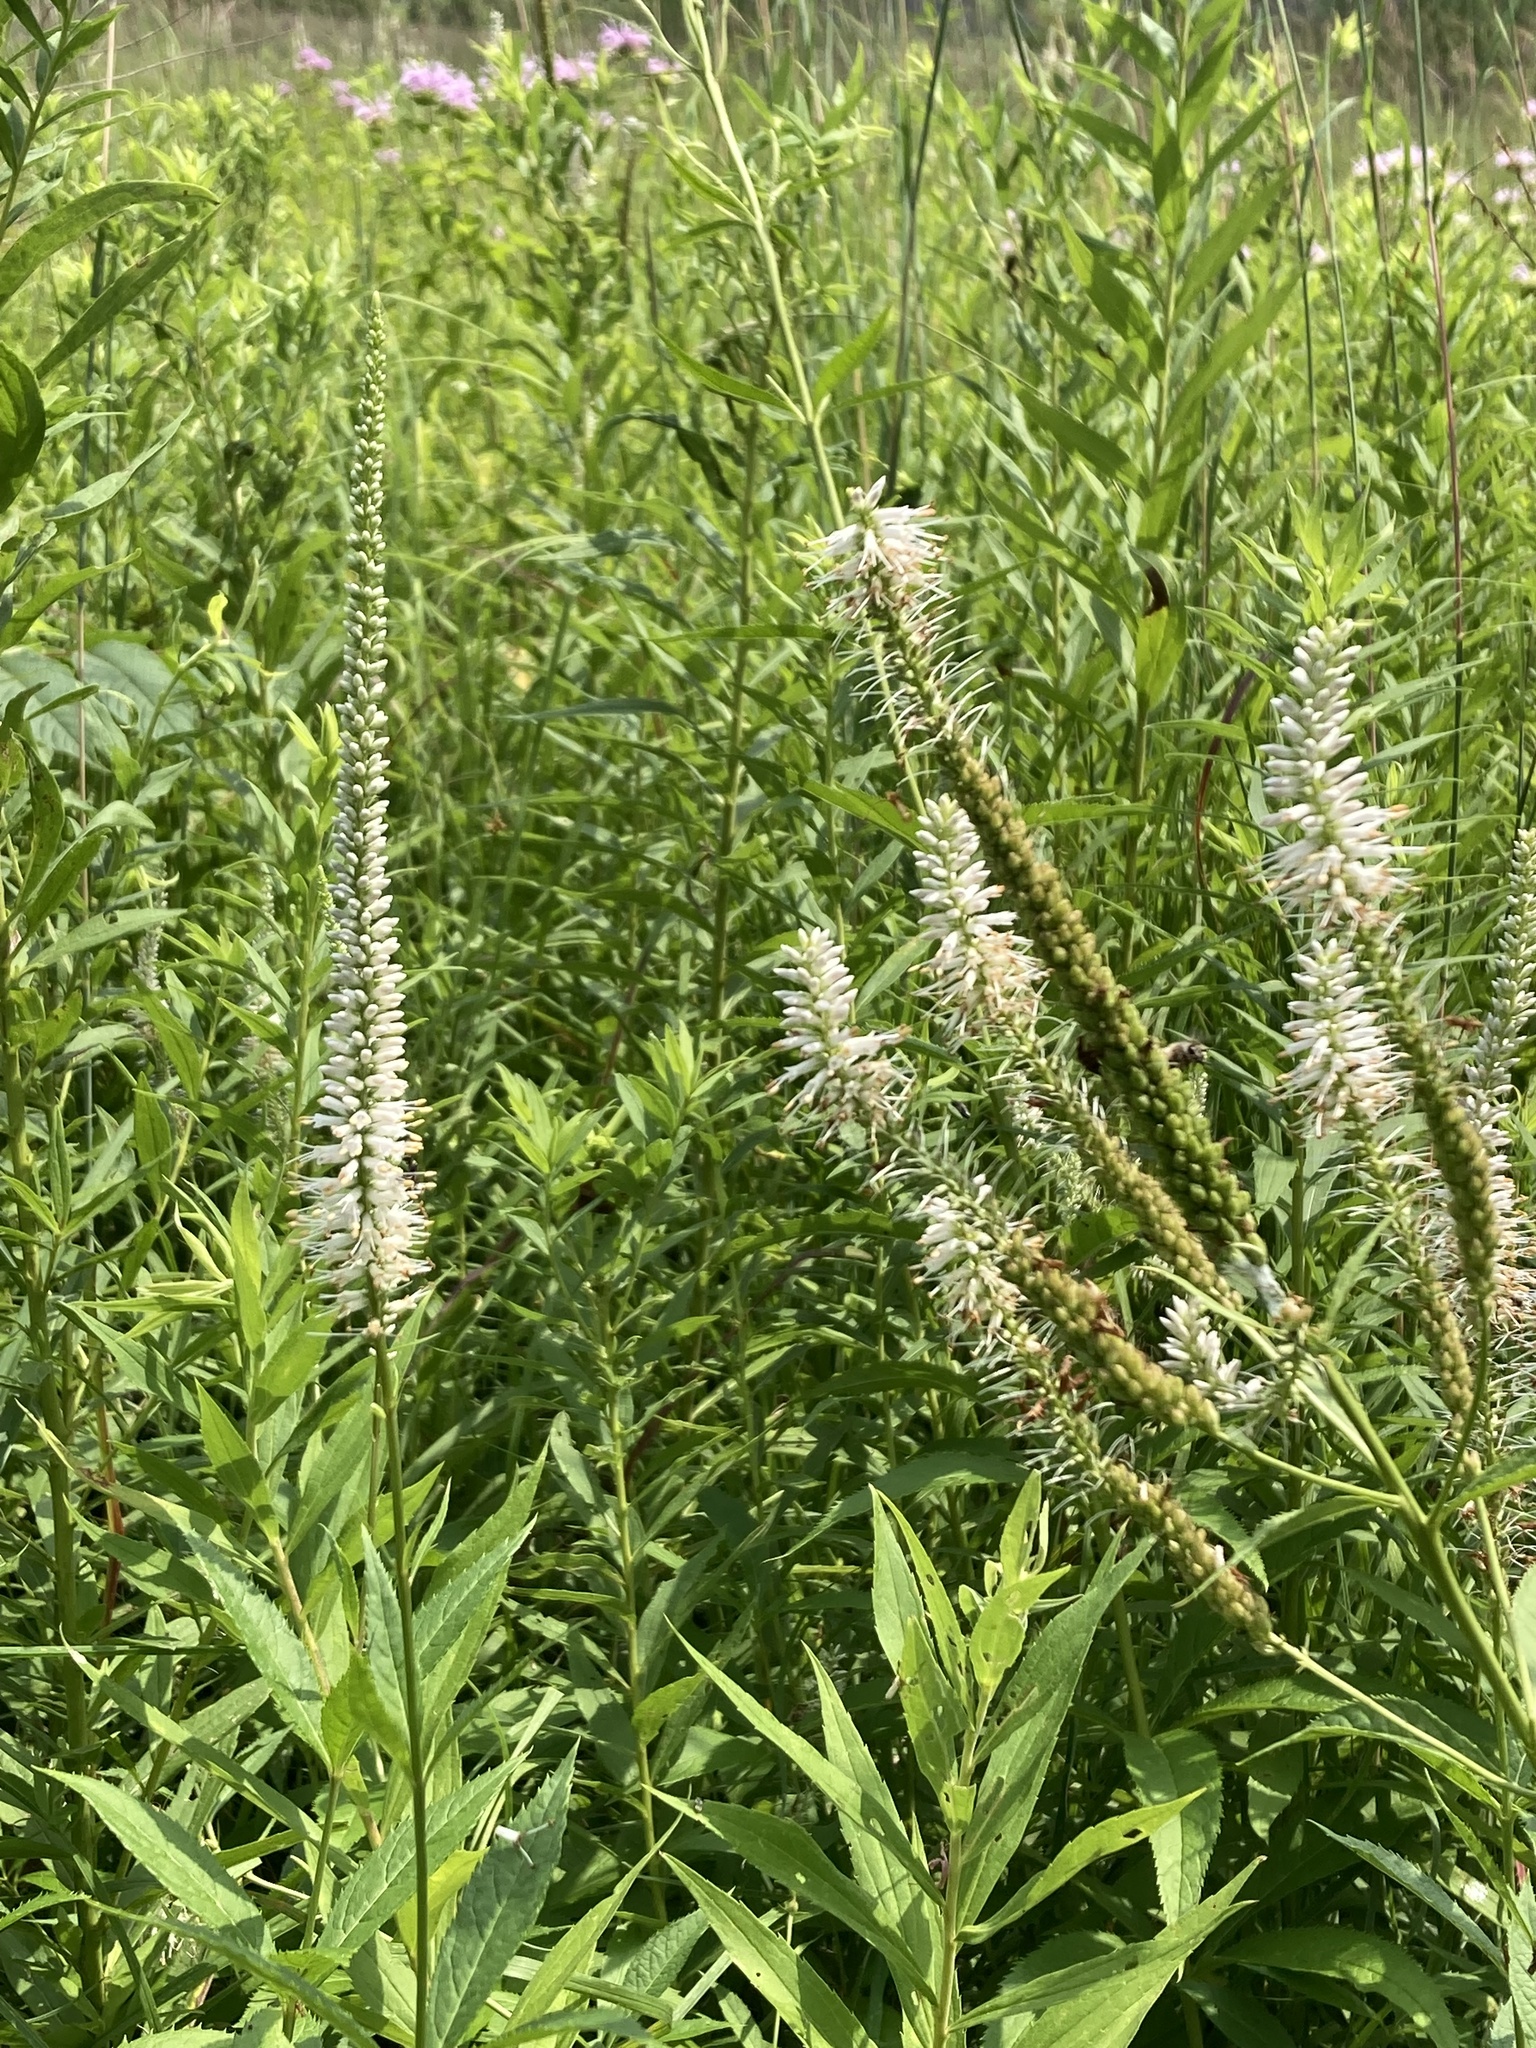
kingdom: Plantae
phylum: Tracheophyta
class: Magnoliopsida
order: Lamiales
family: Plantaginaceae
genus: Veronicastrum
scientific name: Veronicastrum virginicum
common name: Blackroot
